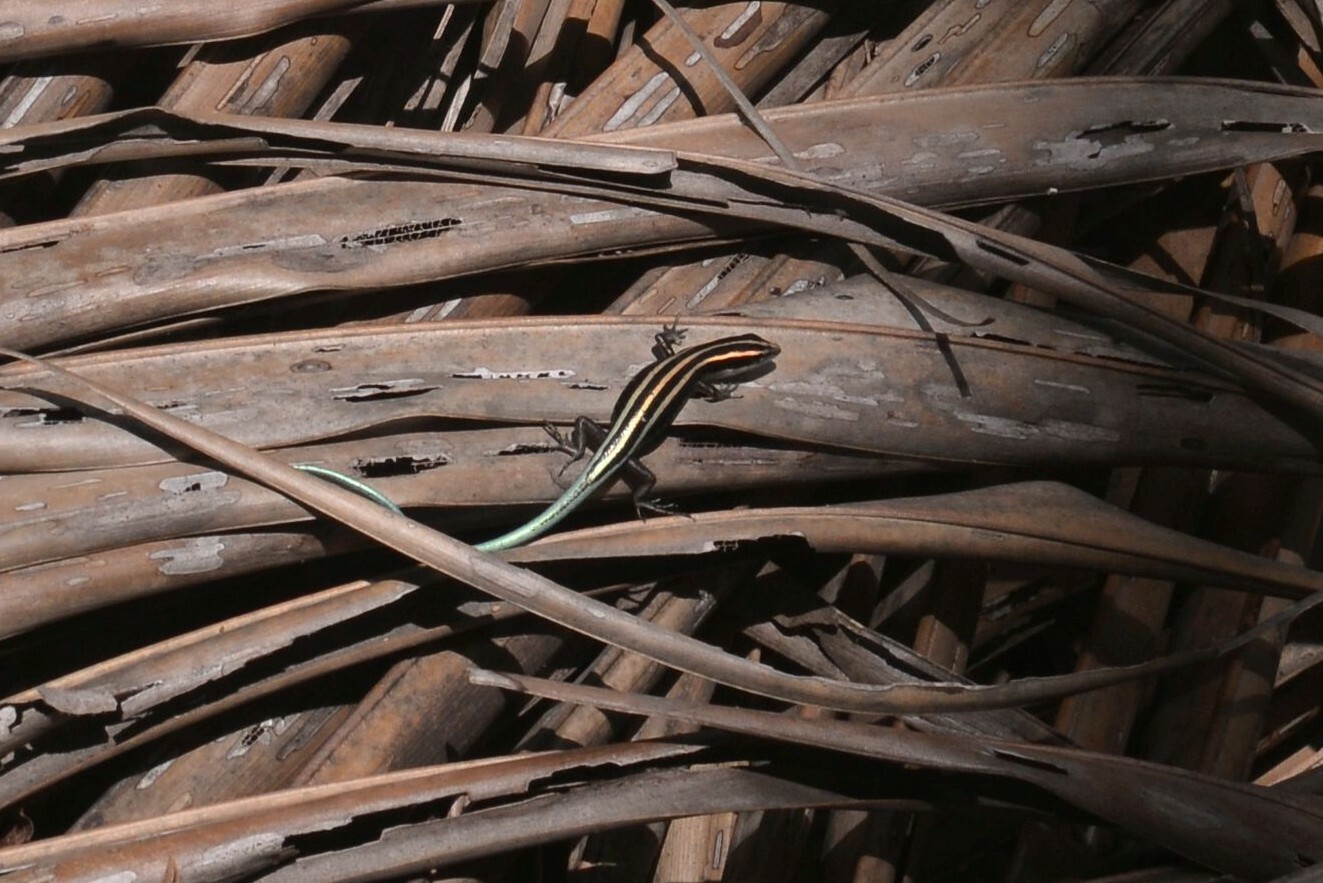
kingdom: Animalia
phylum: Chordata
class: Squamata
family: Scincidae
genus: Emoia
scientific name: Emoia caeruleocauda
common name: Pacific bluetail skink
